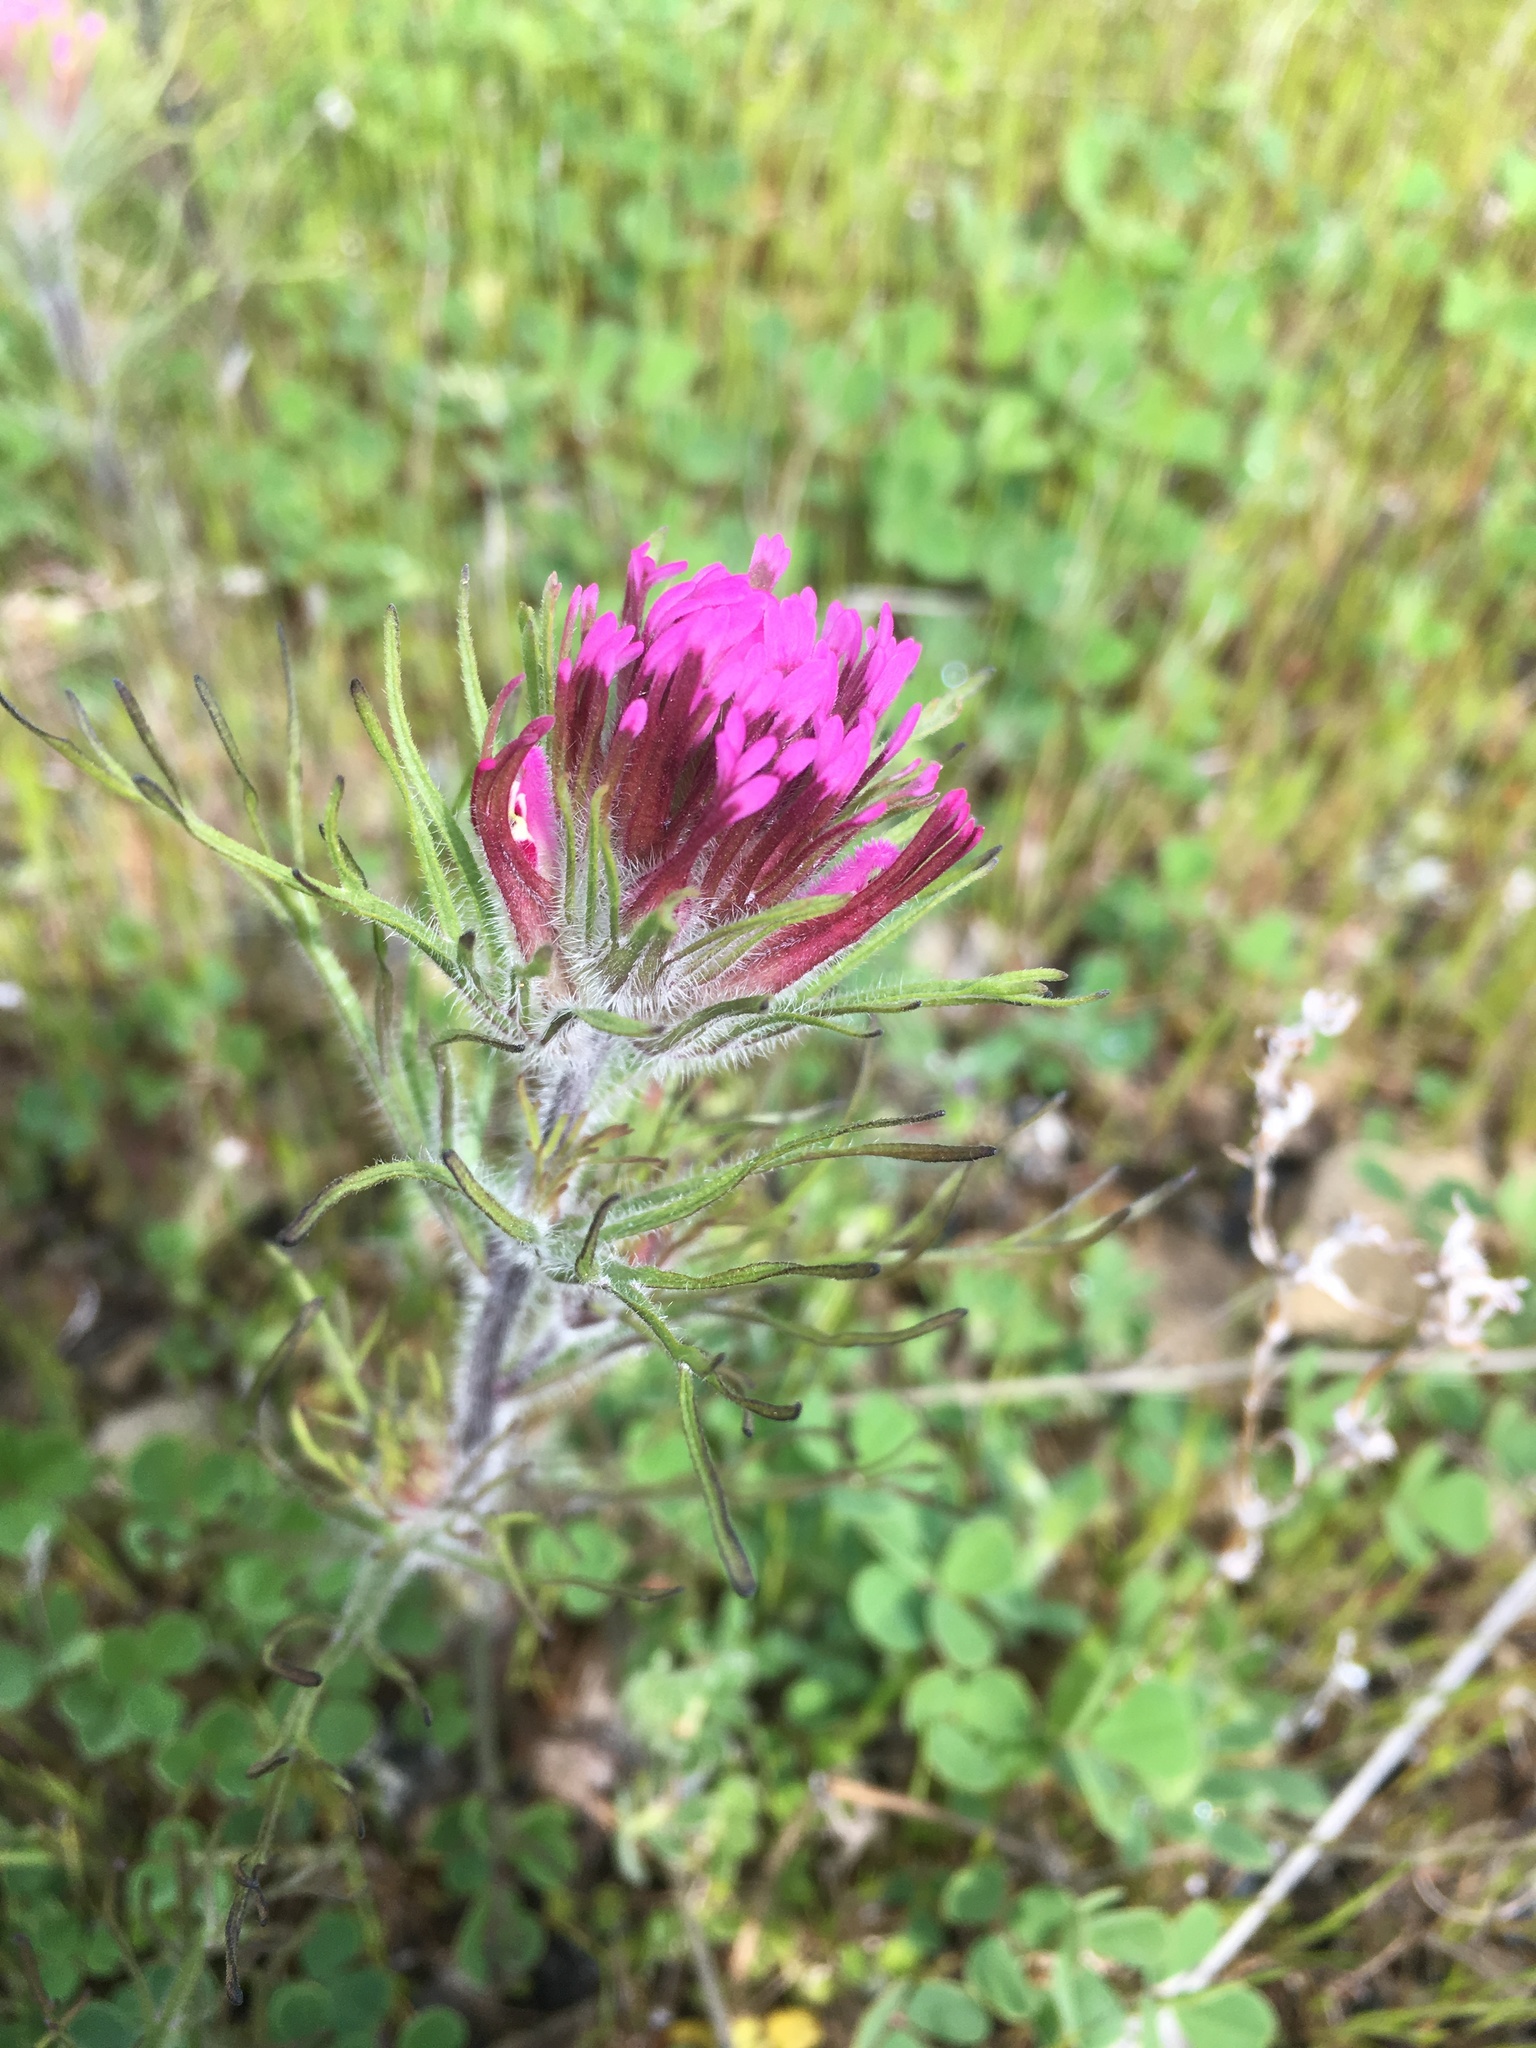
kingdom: Plantae
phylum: Tracheophyta
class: Magnoliopsida
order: Lamiales
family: Orobanchaceae
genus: Castilleja
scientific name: Castilleja exserta
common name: Purple owl-clover
